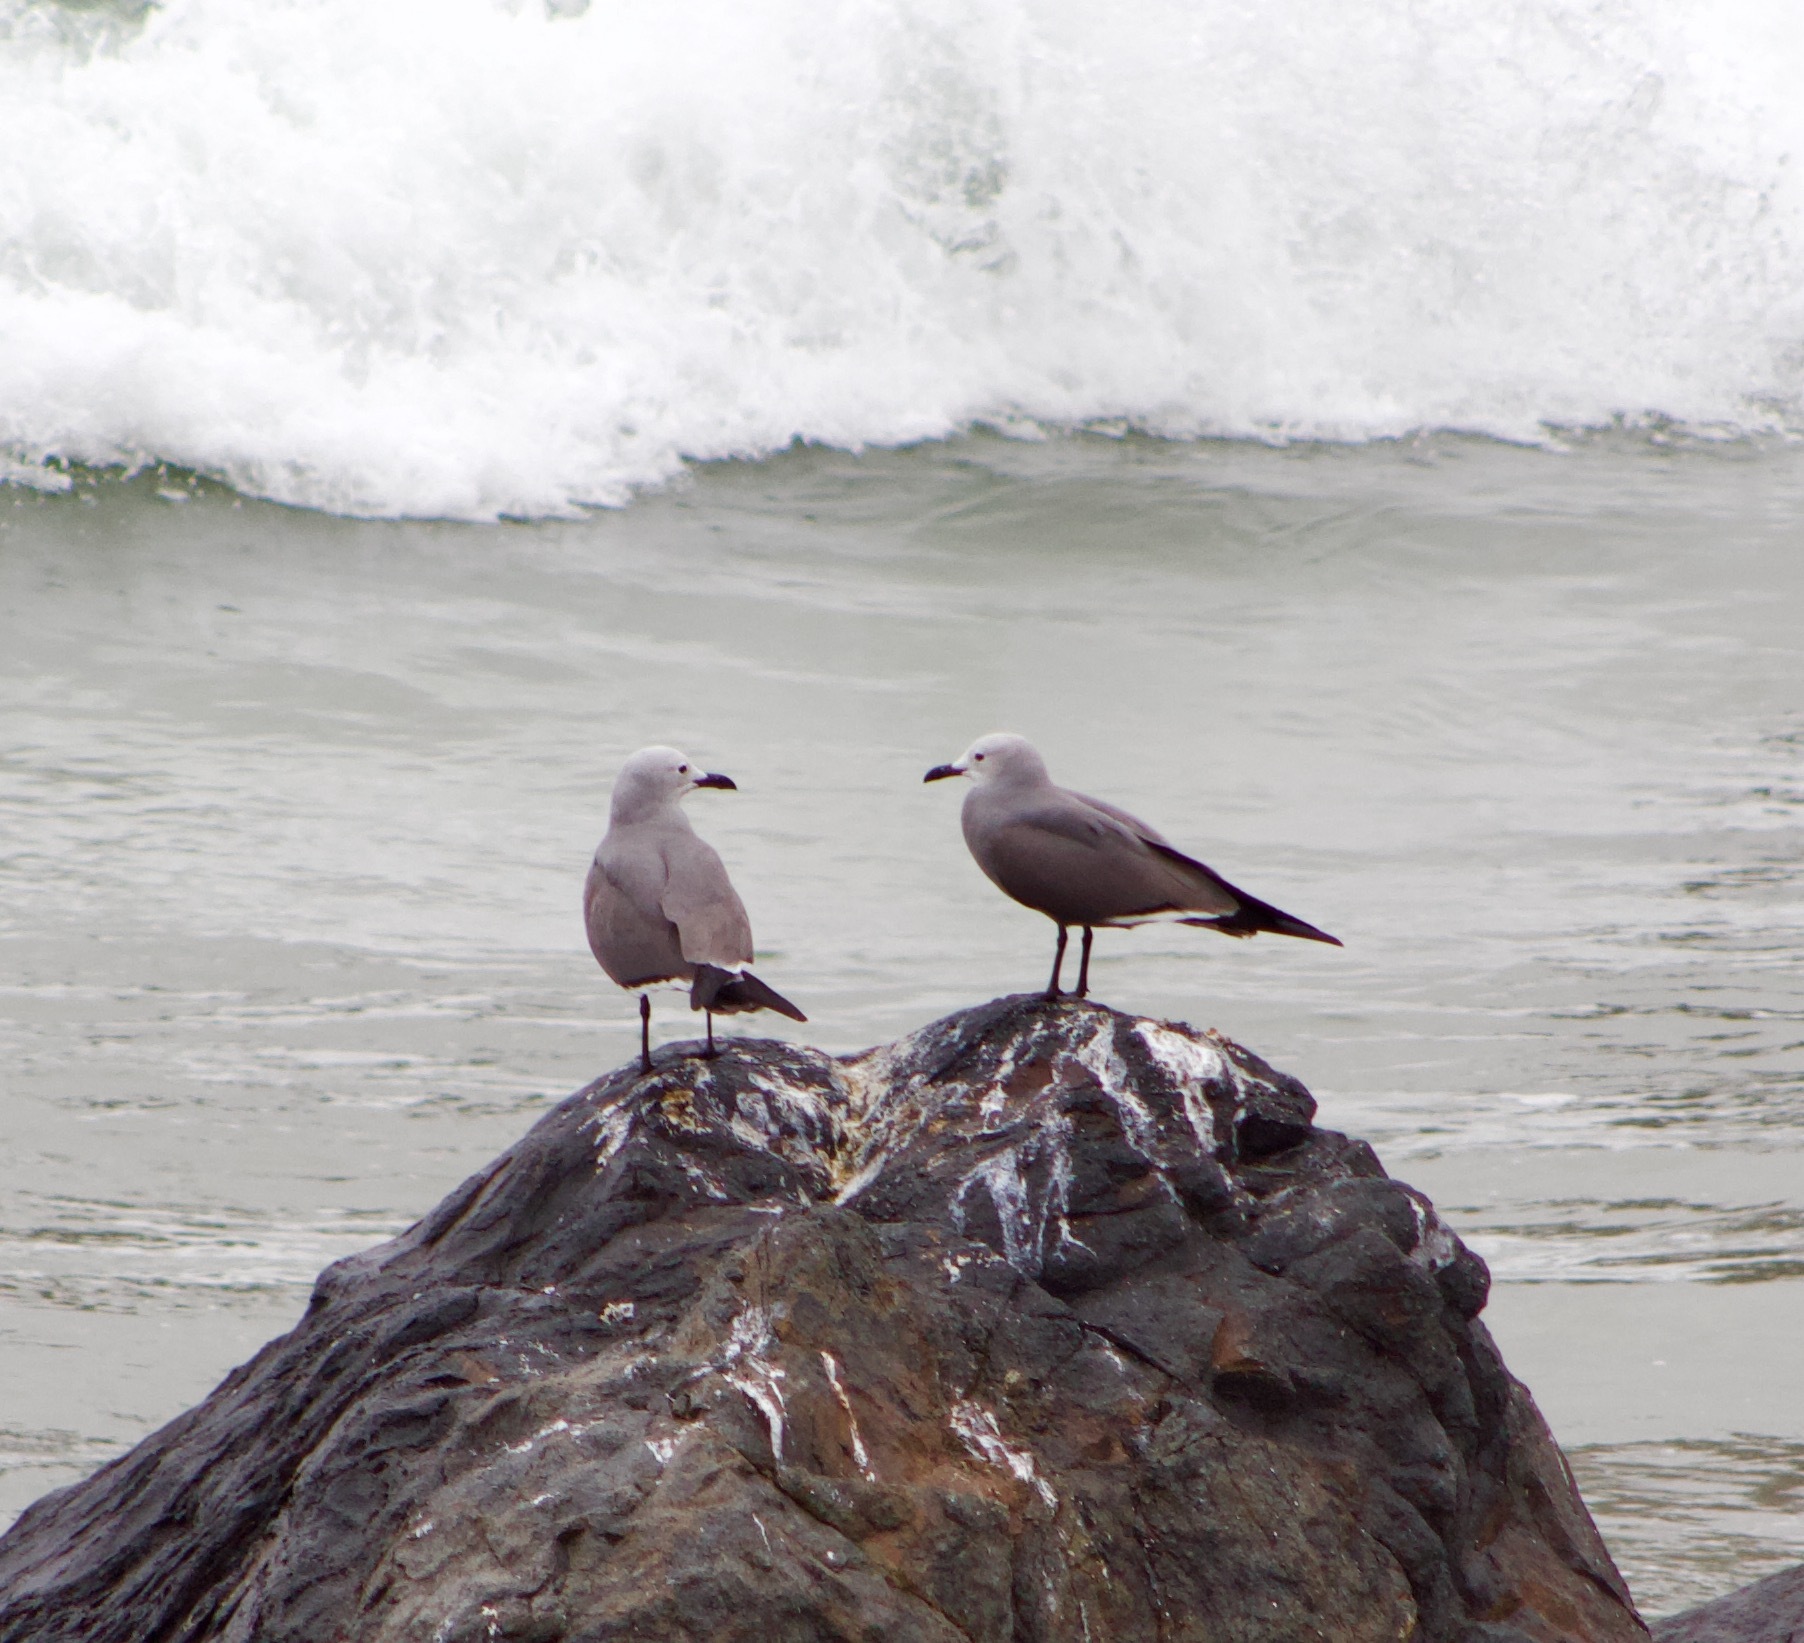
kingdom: Animalia
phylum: Chordata
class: Aves
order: Charadriiformes
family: Laridae
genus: Leucophaeus
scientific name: Leucophaeus modestus
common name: Gray gull
